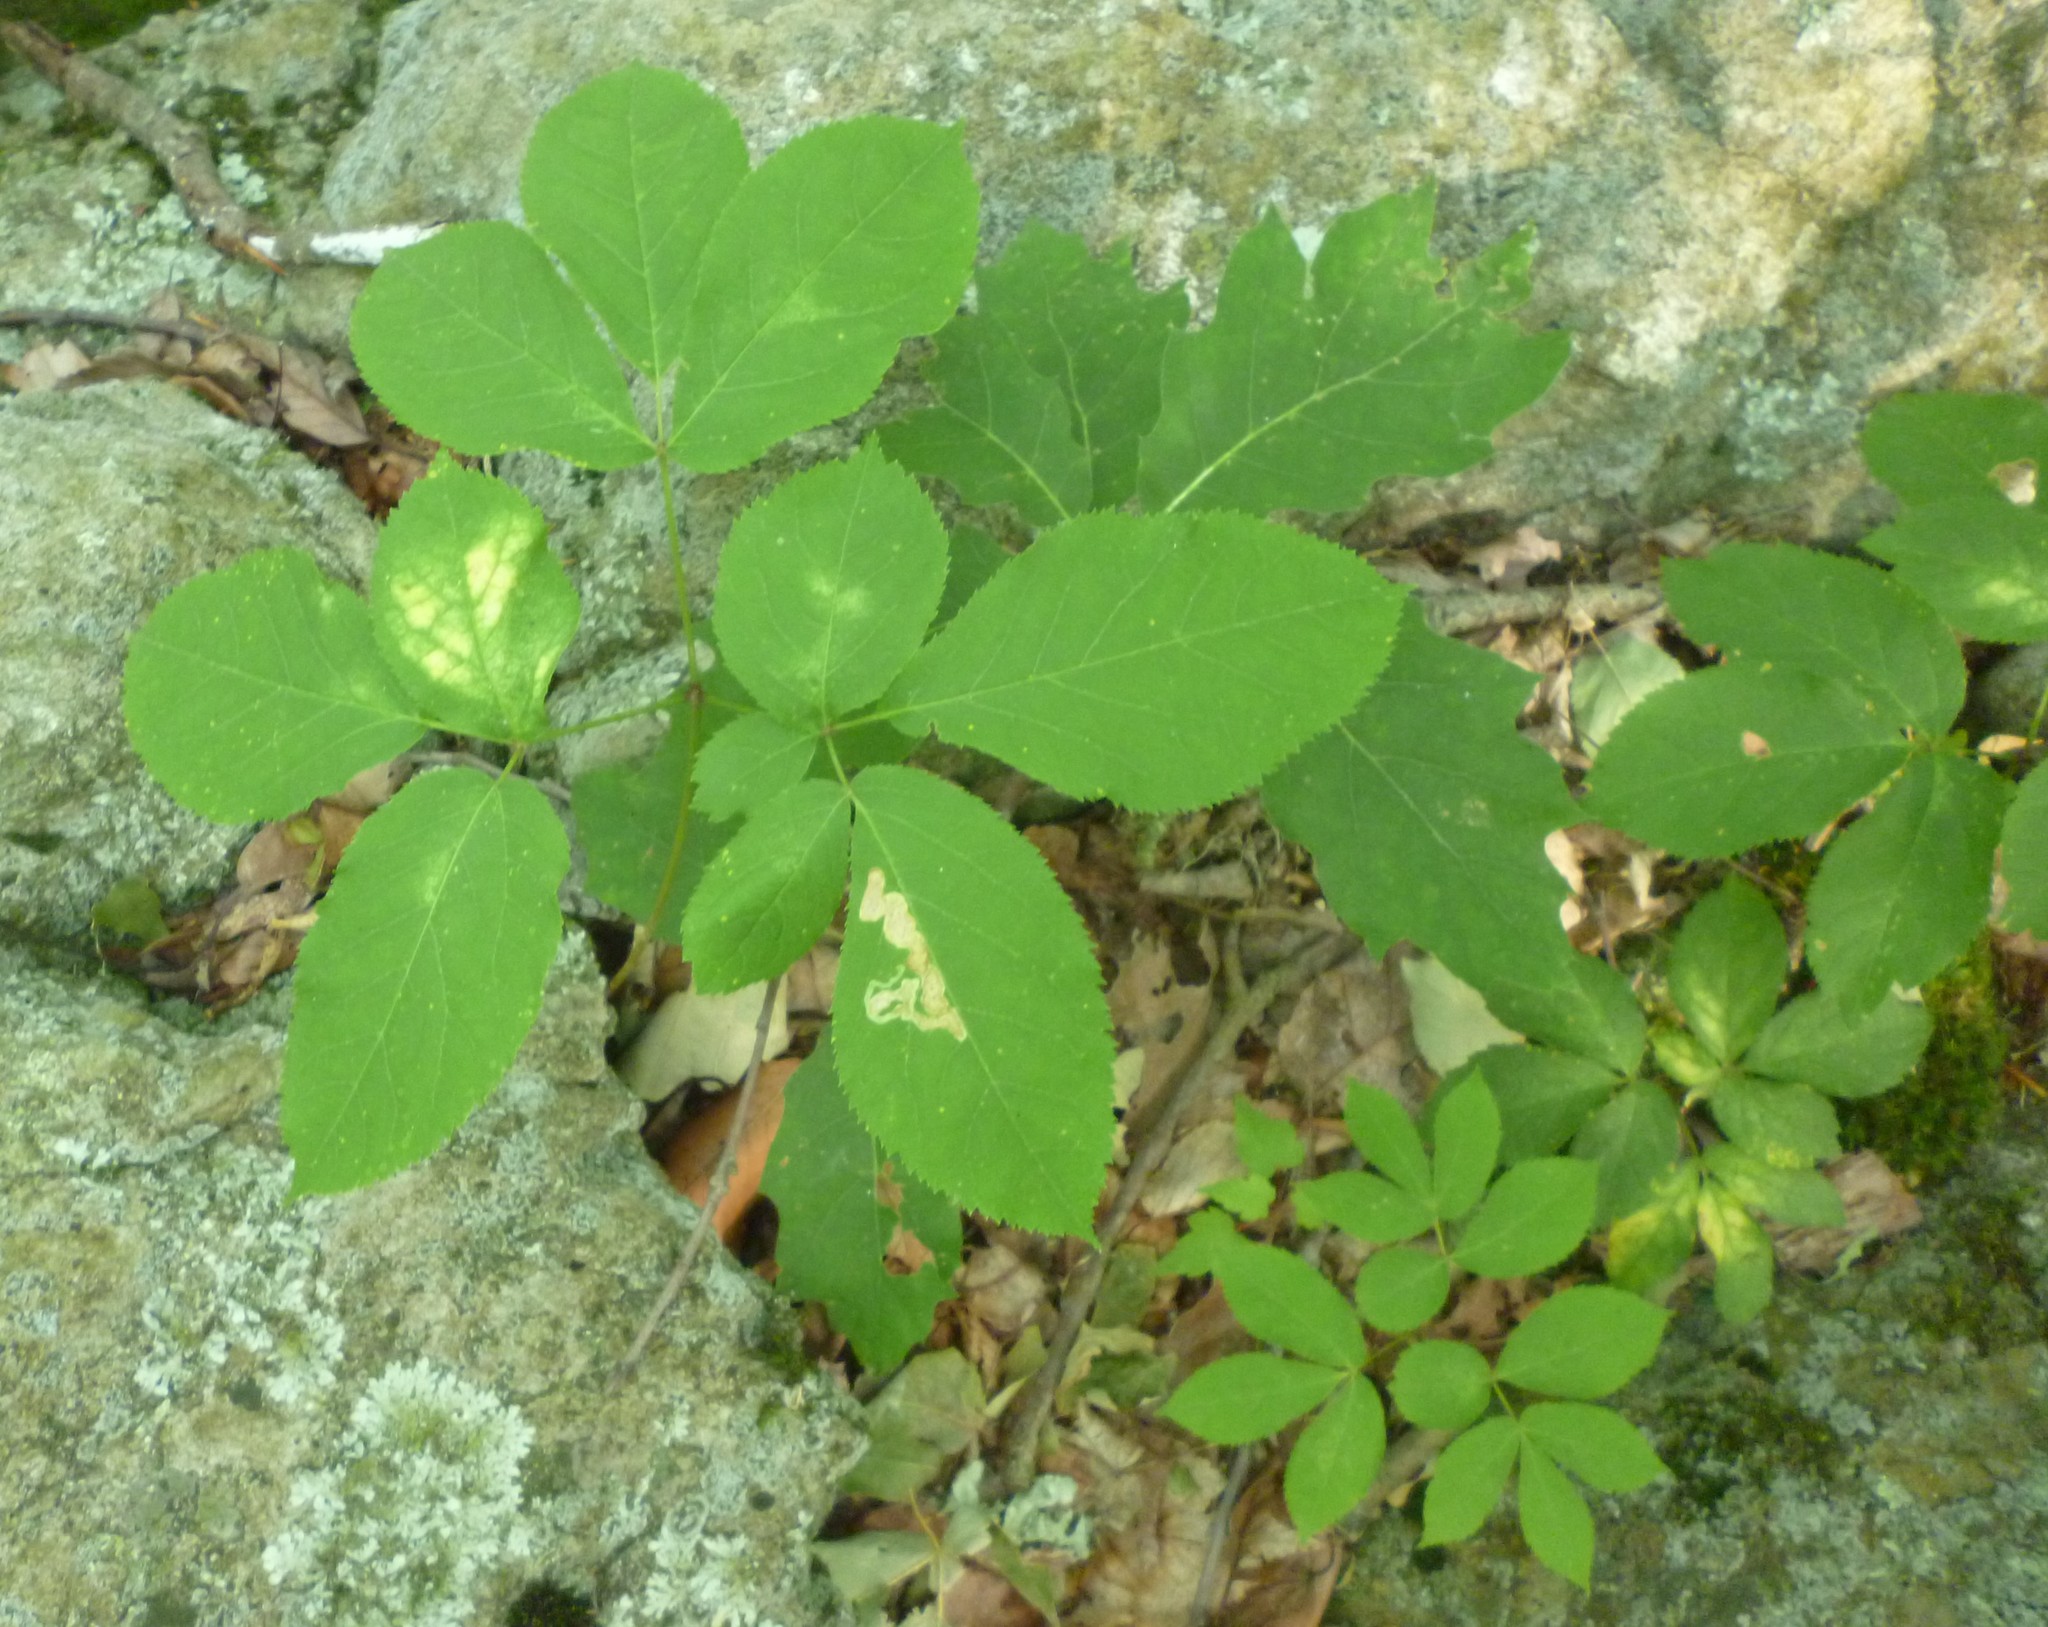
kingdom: Plantae
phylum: Tracheophyta
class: Magnoliopsida
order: Apiales
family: Araliaceae
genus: Aralia
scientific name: Aralia nudicaulis
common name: Wild sarsaparilla
